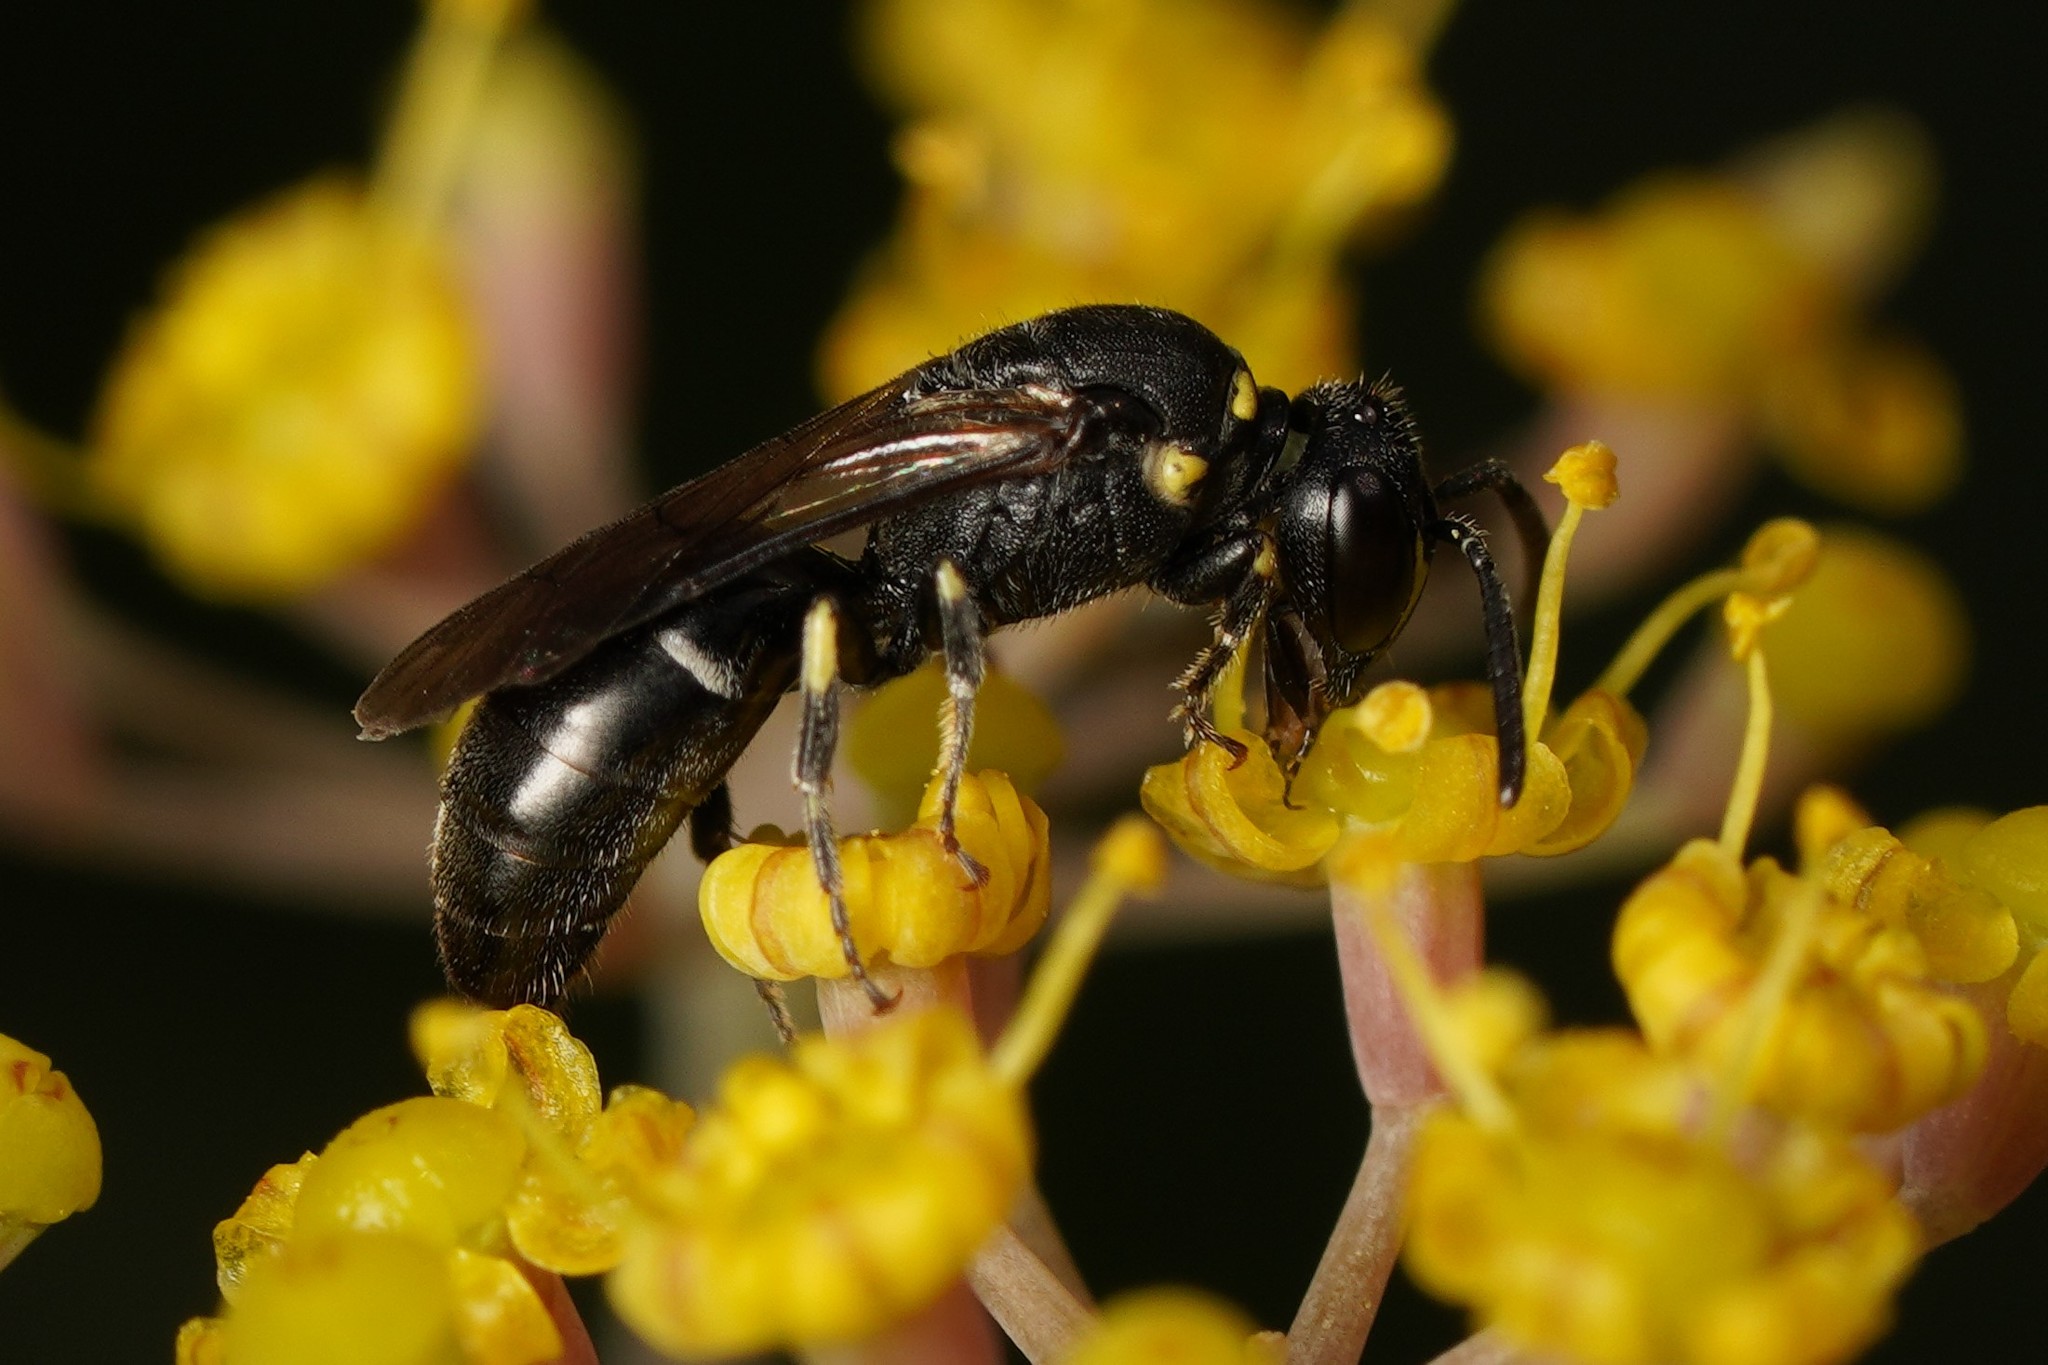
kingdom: Animalia
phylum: Arthropoda
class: Insecta
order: Hymenoptera
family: Colletidae
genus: Hylaeus
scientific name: Hylaeus modestus
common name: Yellow-faced bee
